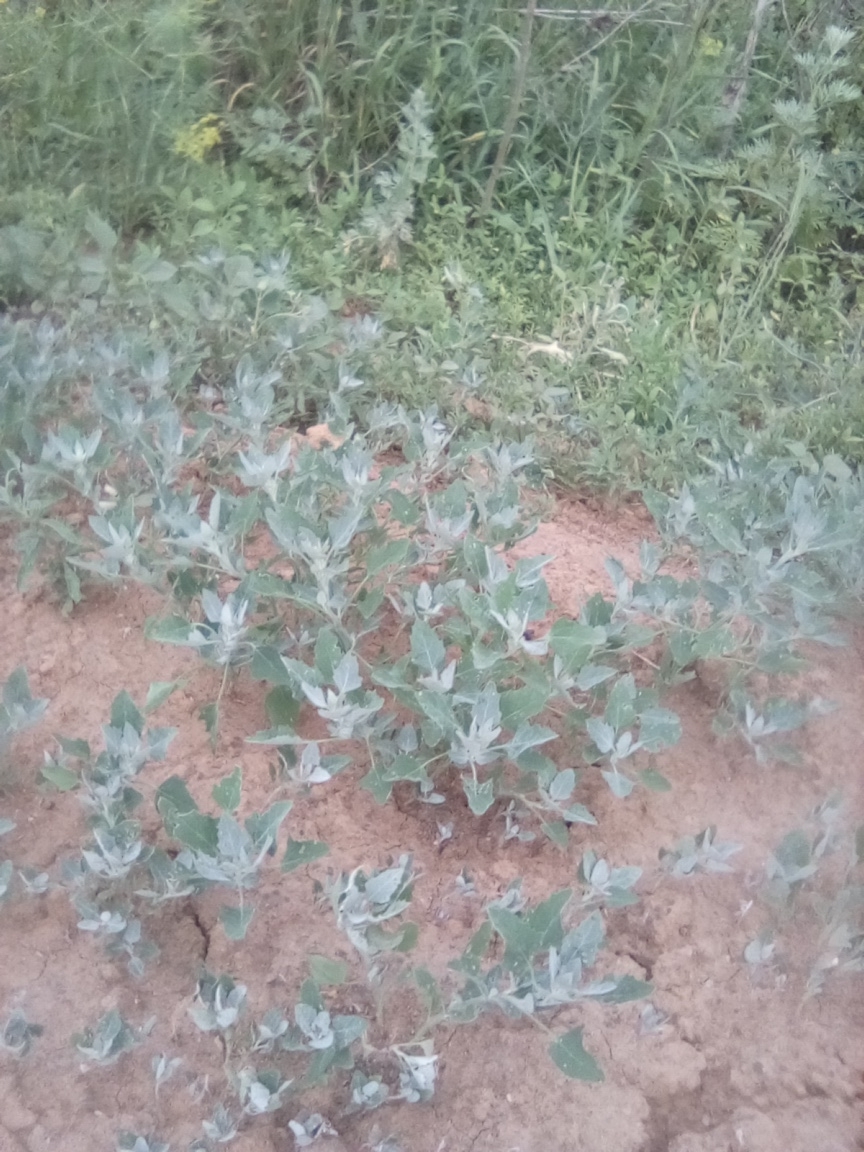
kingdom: Plantae
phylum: Tracheophyta
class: Magnoliopsida
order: Caryophyllales
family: Amaranthaceae
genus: Chenopodium
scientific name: Chenopodium album
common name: Fat-hen
